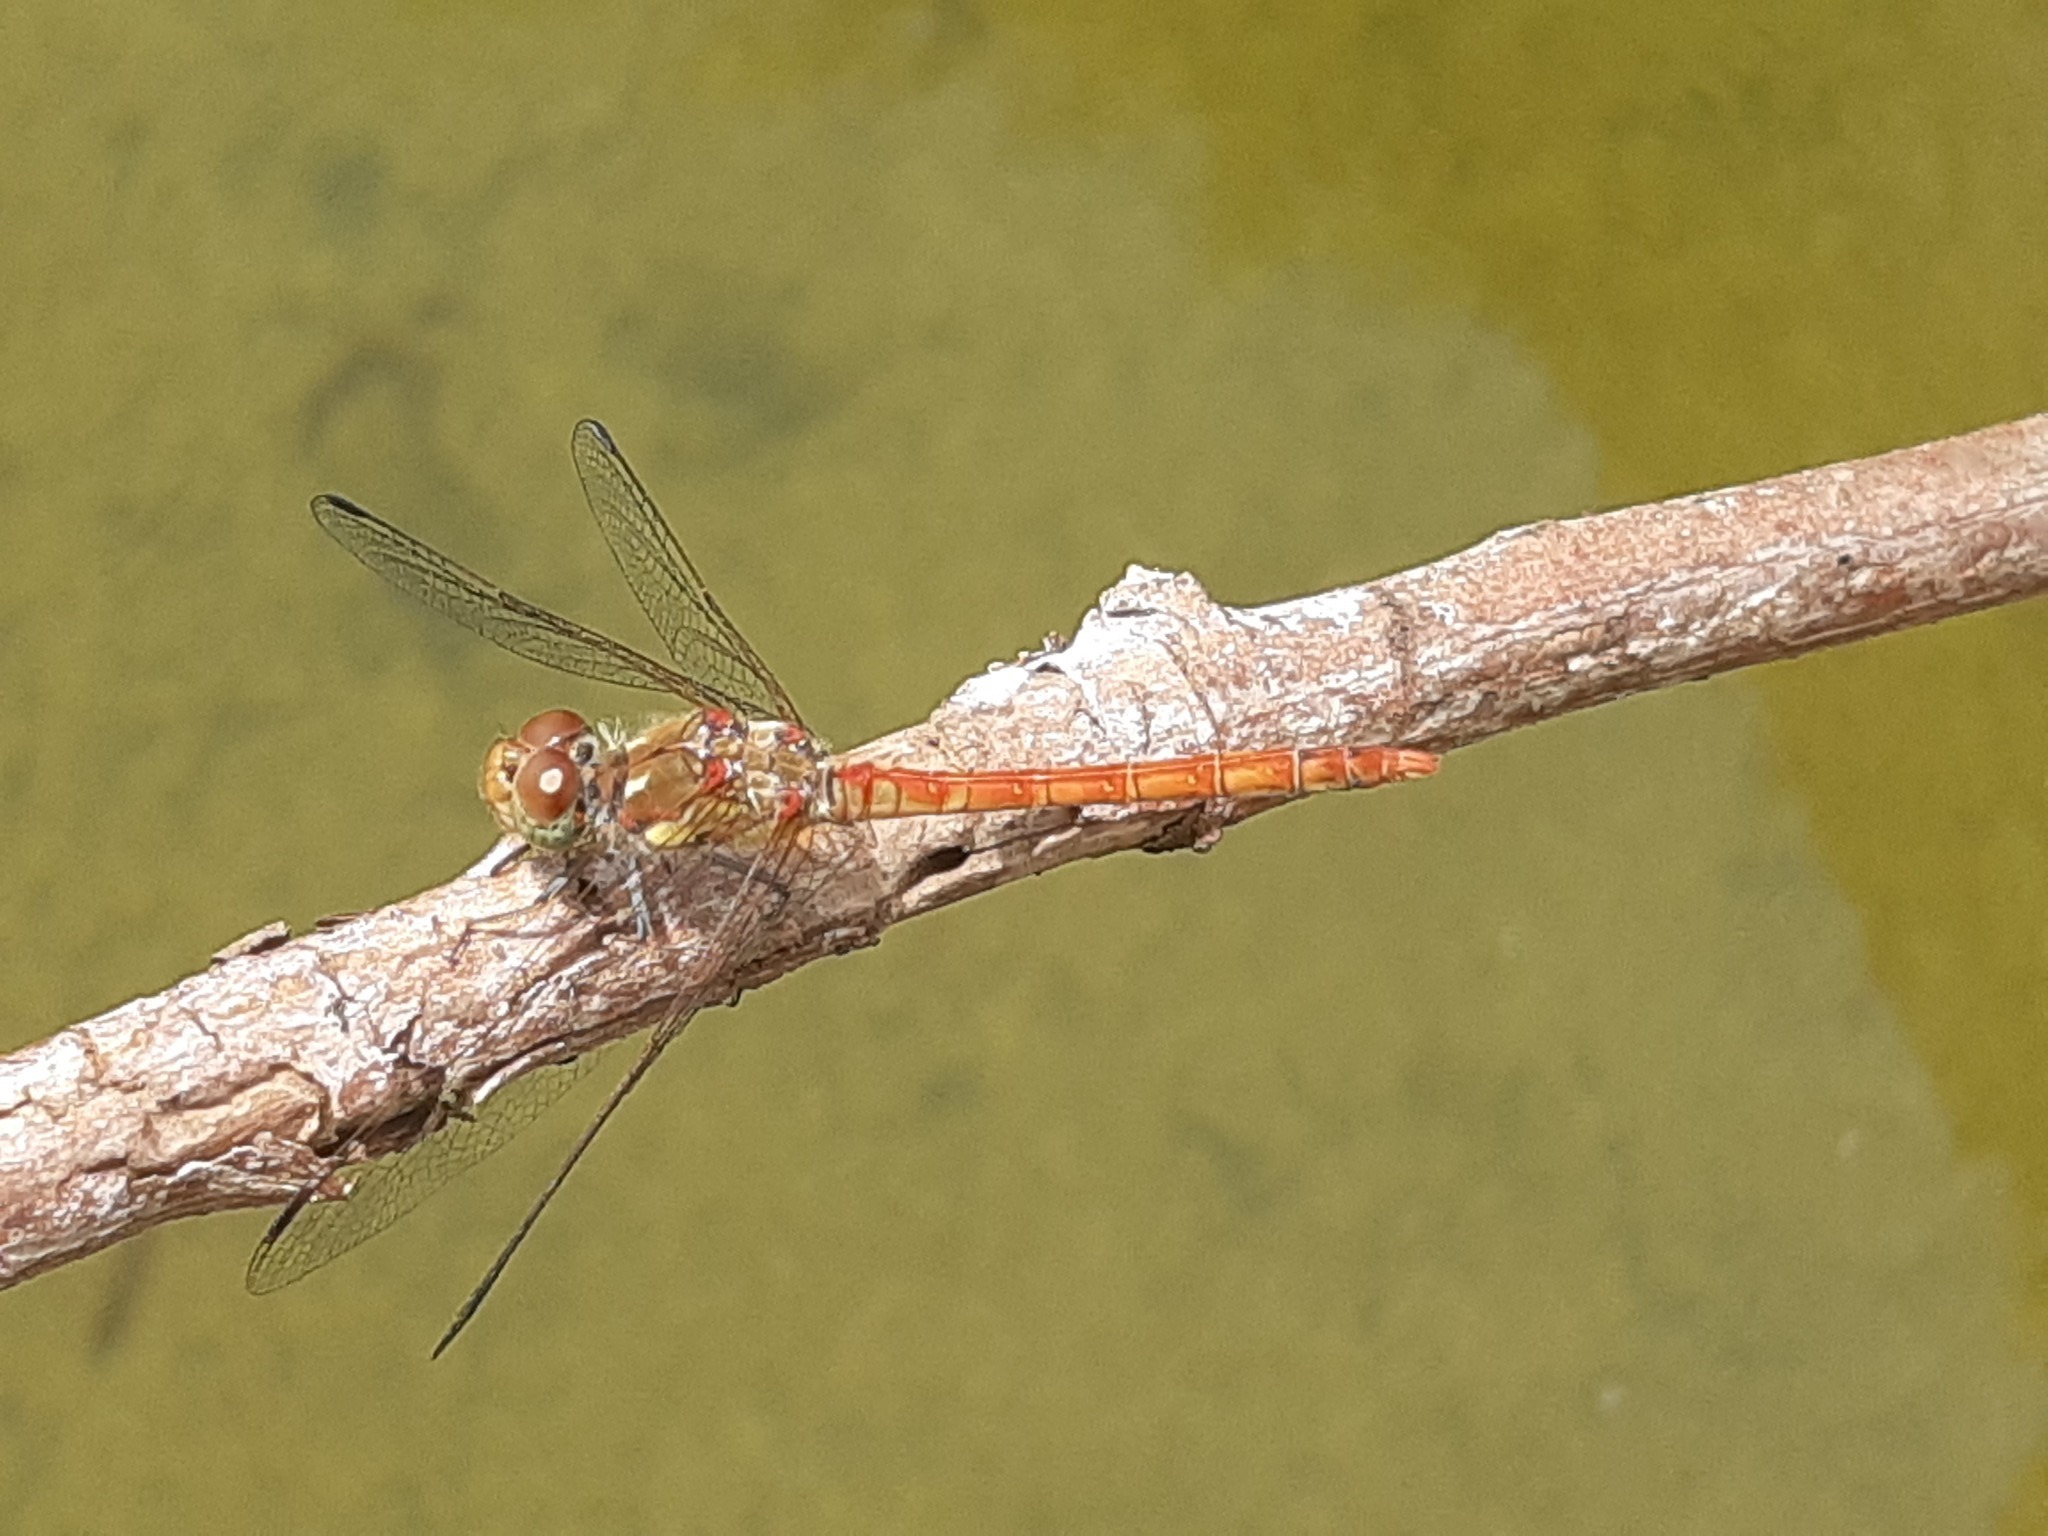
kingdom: Animalia
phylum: Arthropoda
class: Insecta
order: Odonata
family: Libellulidae
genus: Sympetrum
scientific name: Sympetrum striolatum
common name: Common darter
